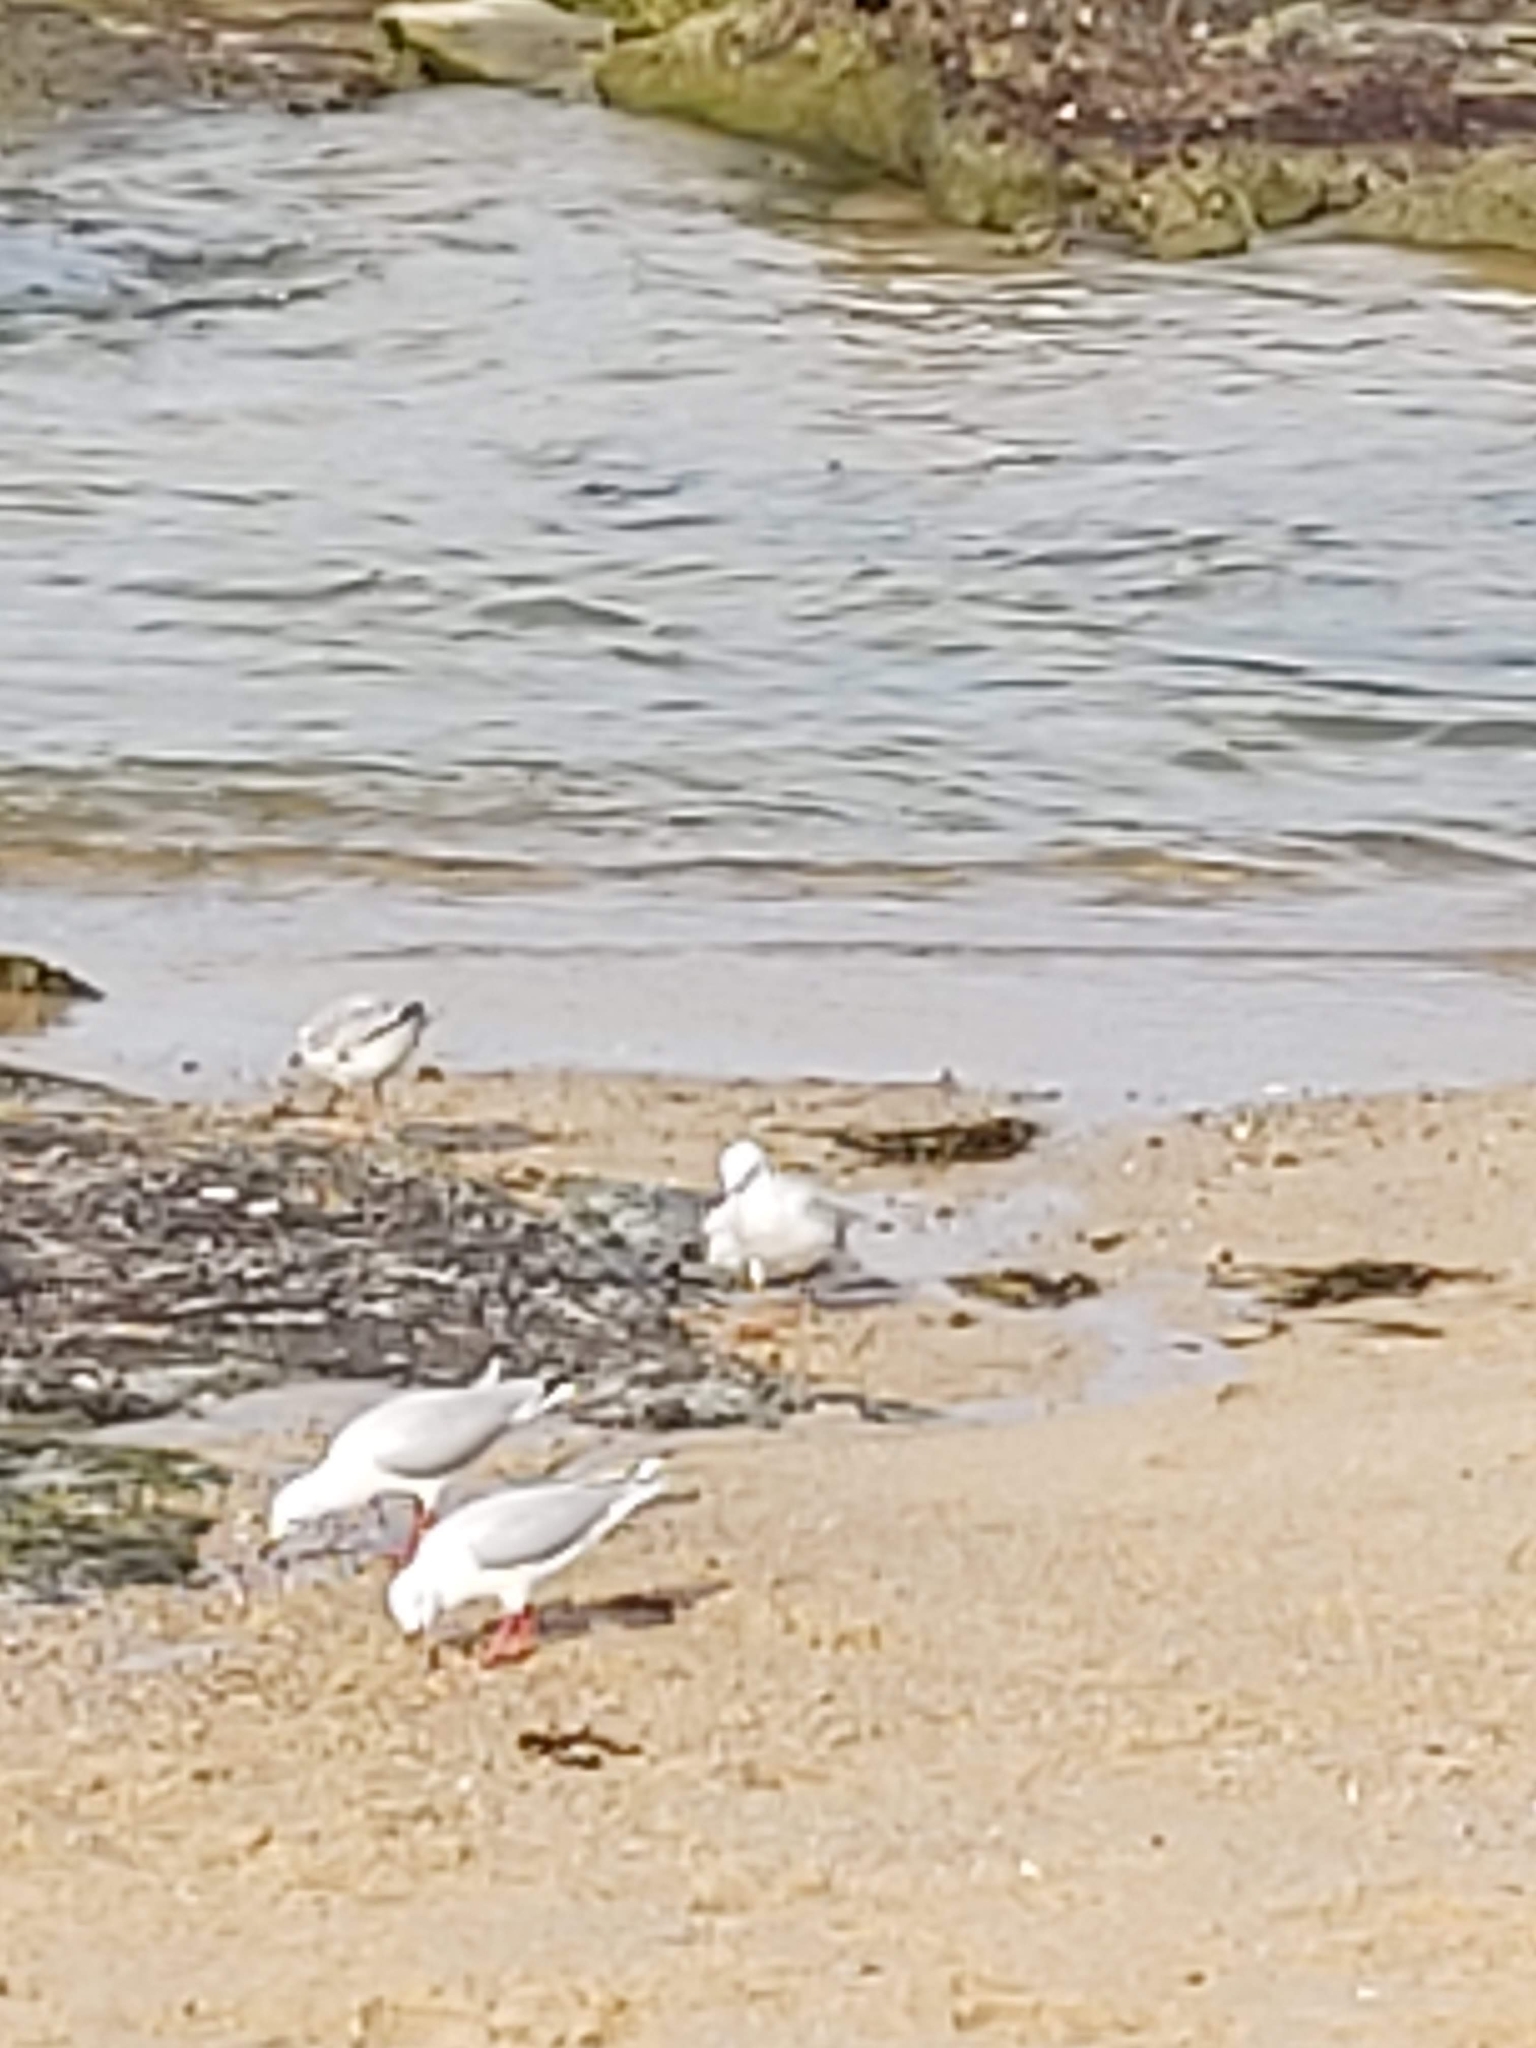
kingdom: Animalia
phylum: Chordata
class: Aves
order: Charadriiformes
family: Laridae
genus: Chroicocephalus
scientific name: Chroicocephalus novaehollandiae
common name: Silver gull
